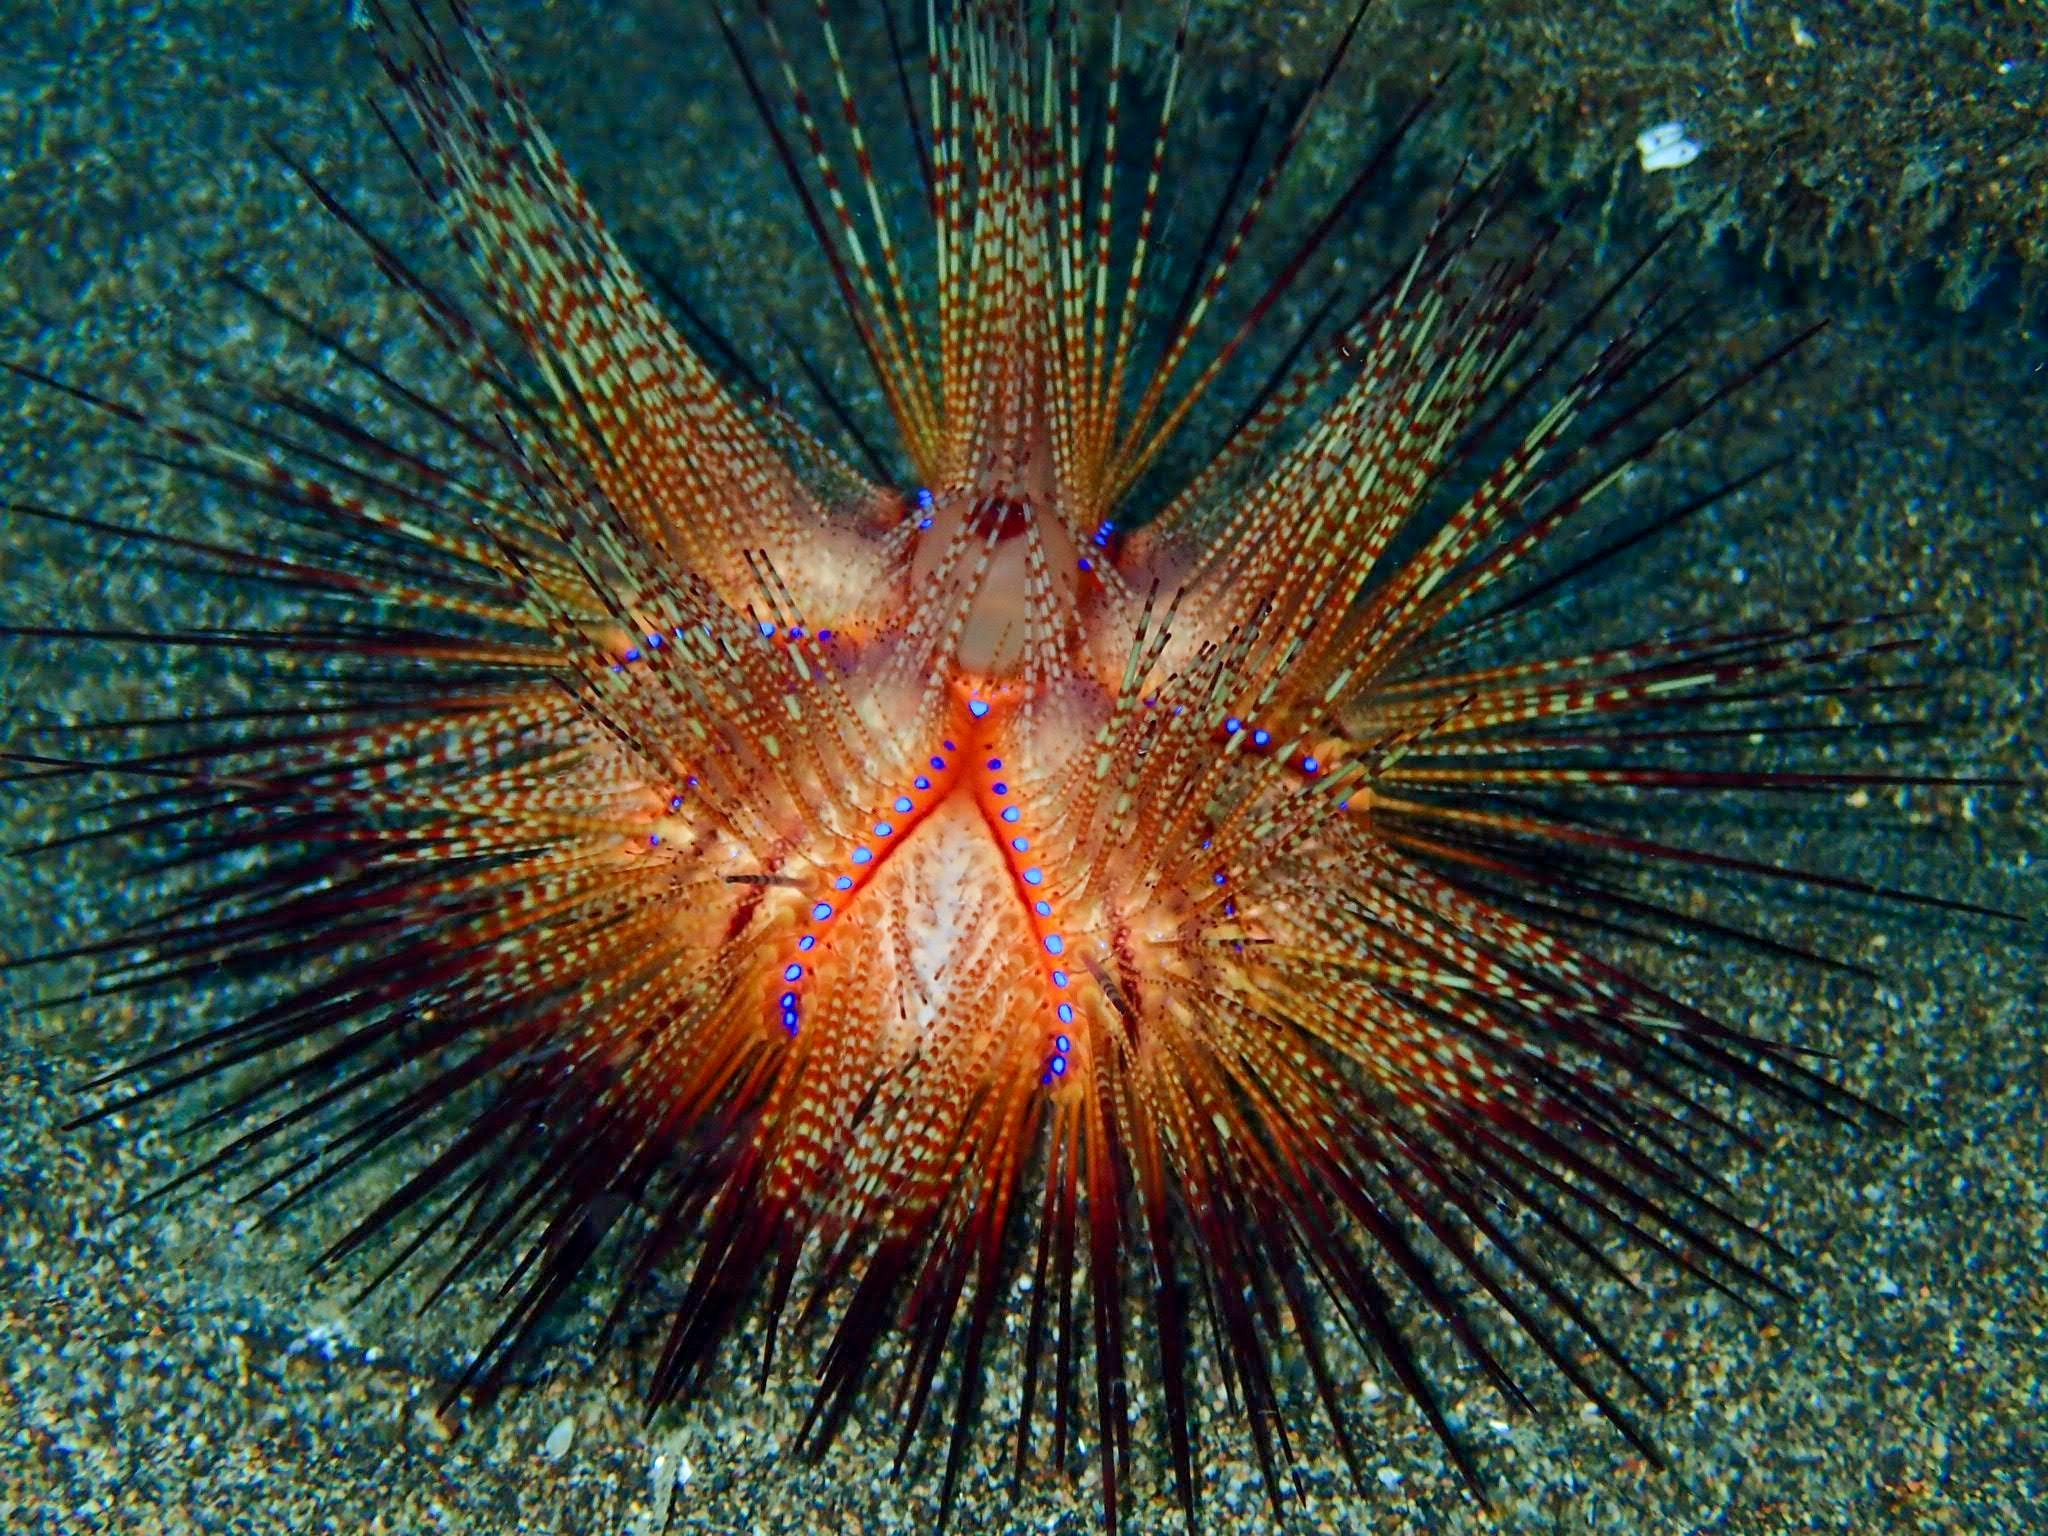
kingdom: Animalia
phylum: Echinodermata
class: Echinoidea
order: Diadematoida
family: Diadematidae
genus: Astropyga
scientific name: Astropyga radiata
